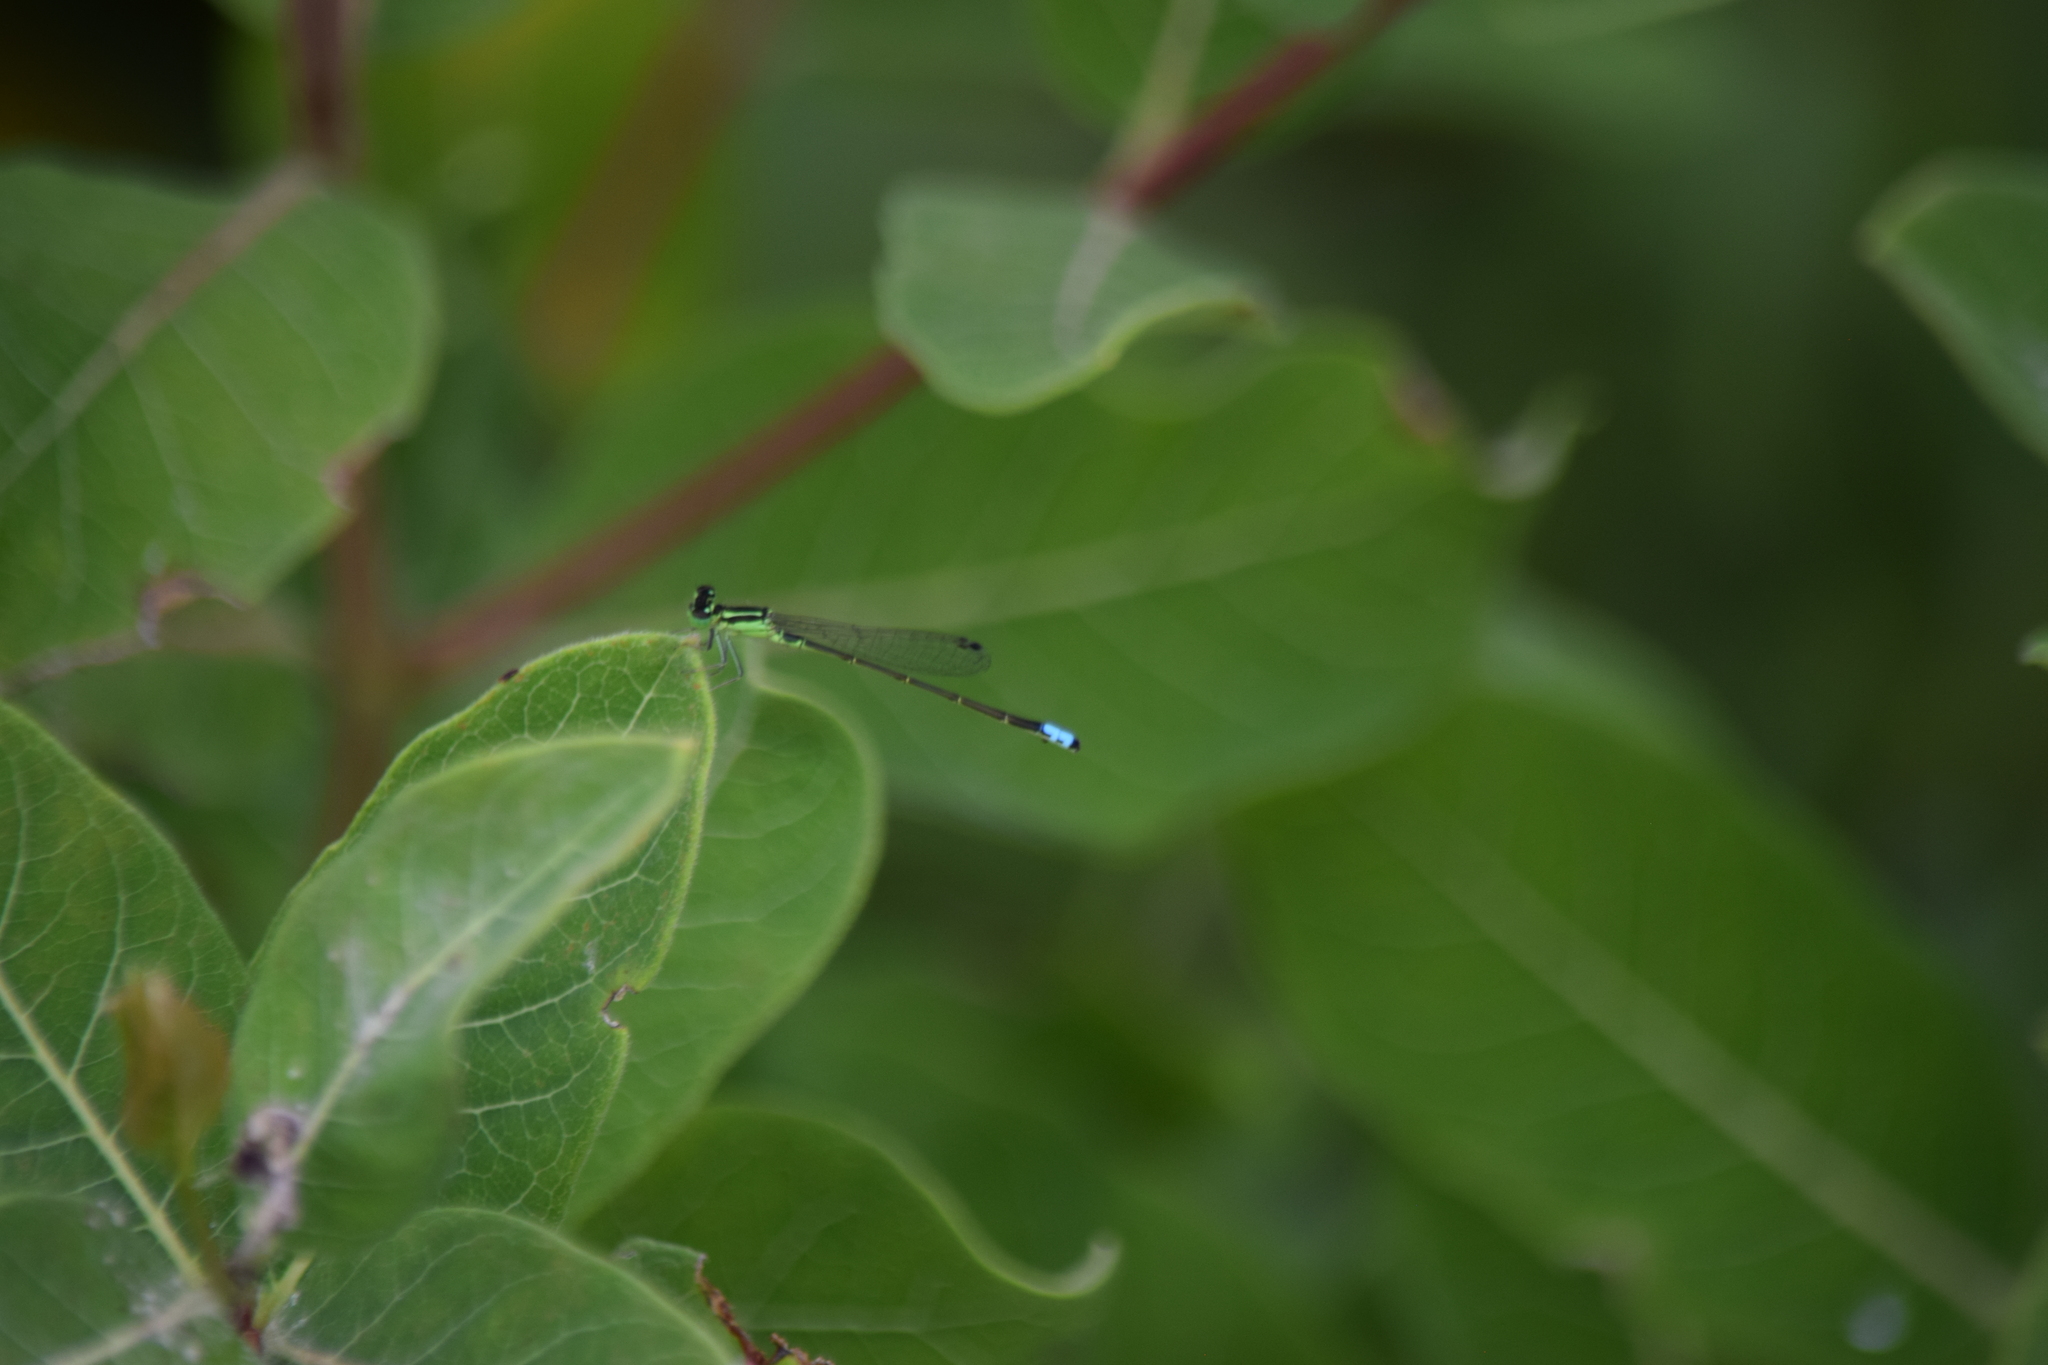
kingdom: Animalia
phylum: Arthropoda
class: Insecta
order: Odonata
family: Coenagrionidae
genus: Ischnura
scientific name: Ischnura verticalis
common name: Eastern forktail
